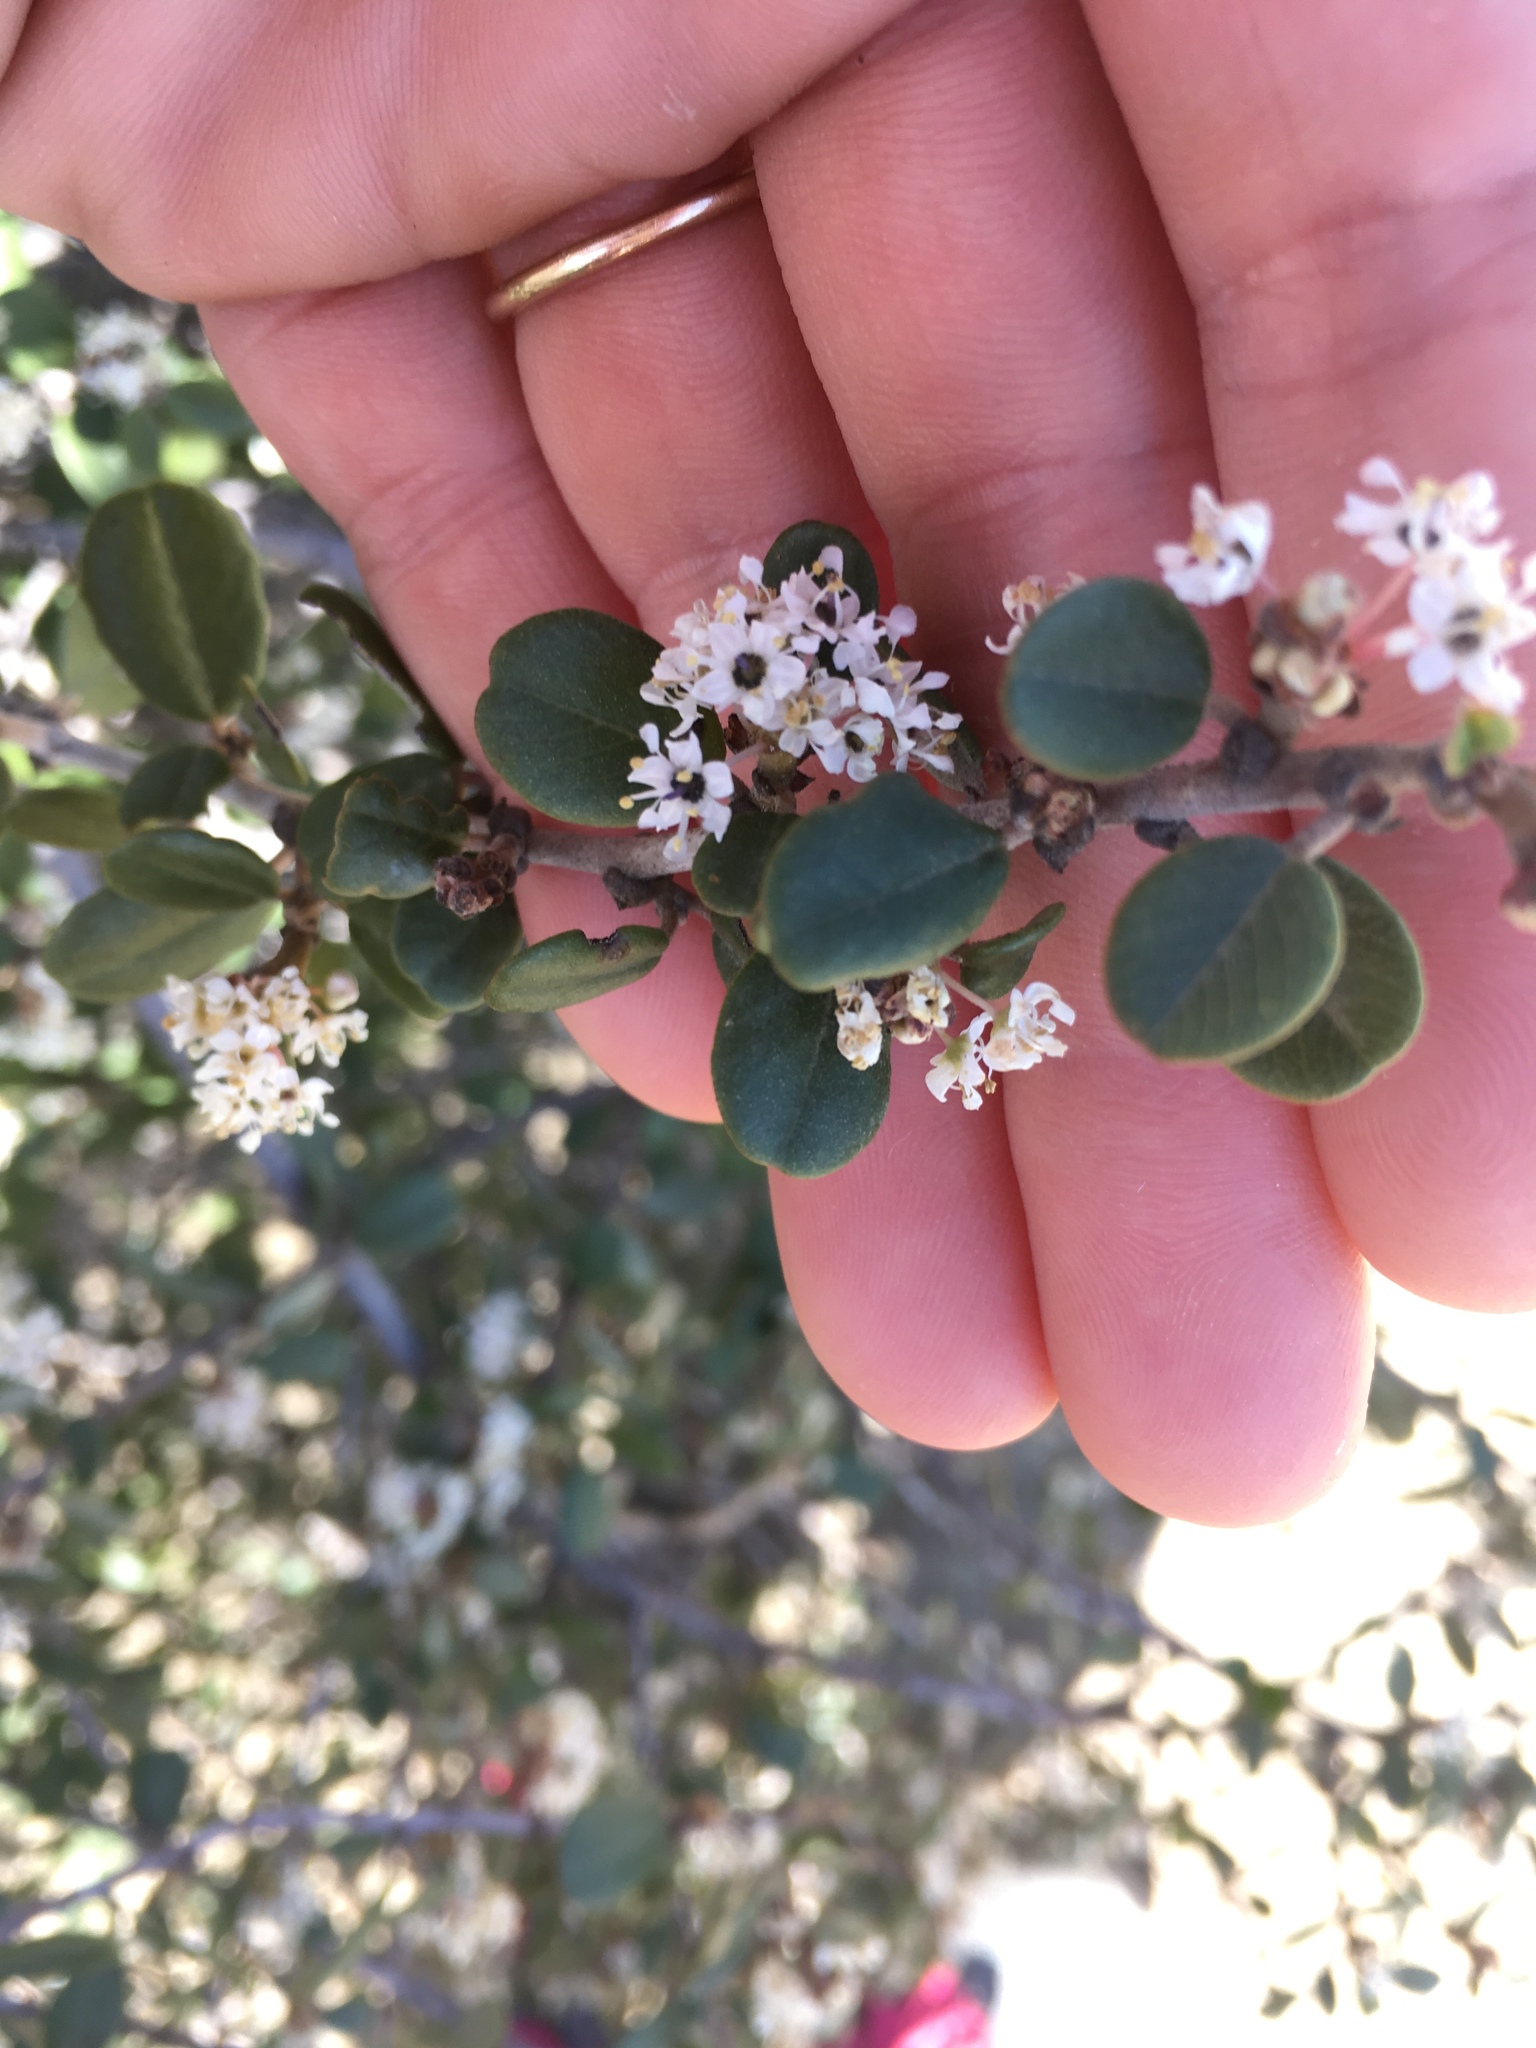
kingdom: Plantae
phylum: Tracheophyta
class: Magnoliopsida
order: Rosales
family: Rhamnaceae
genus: Ceanothus
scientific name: Ceanothus megacarpus
